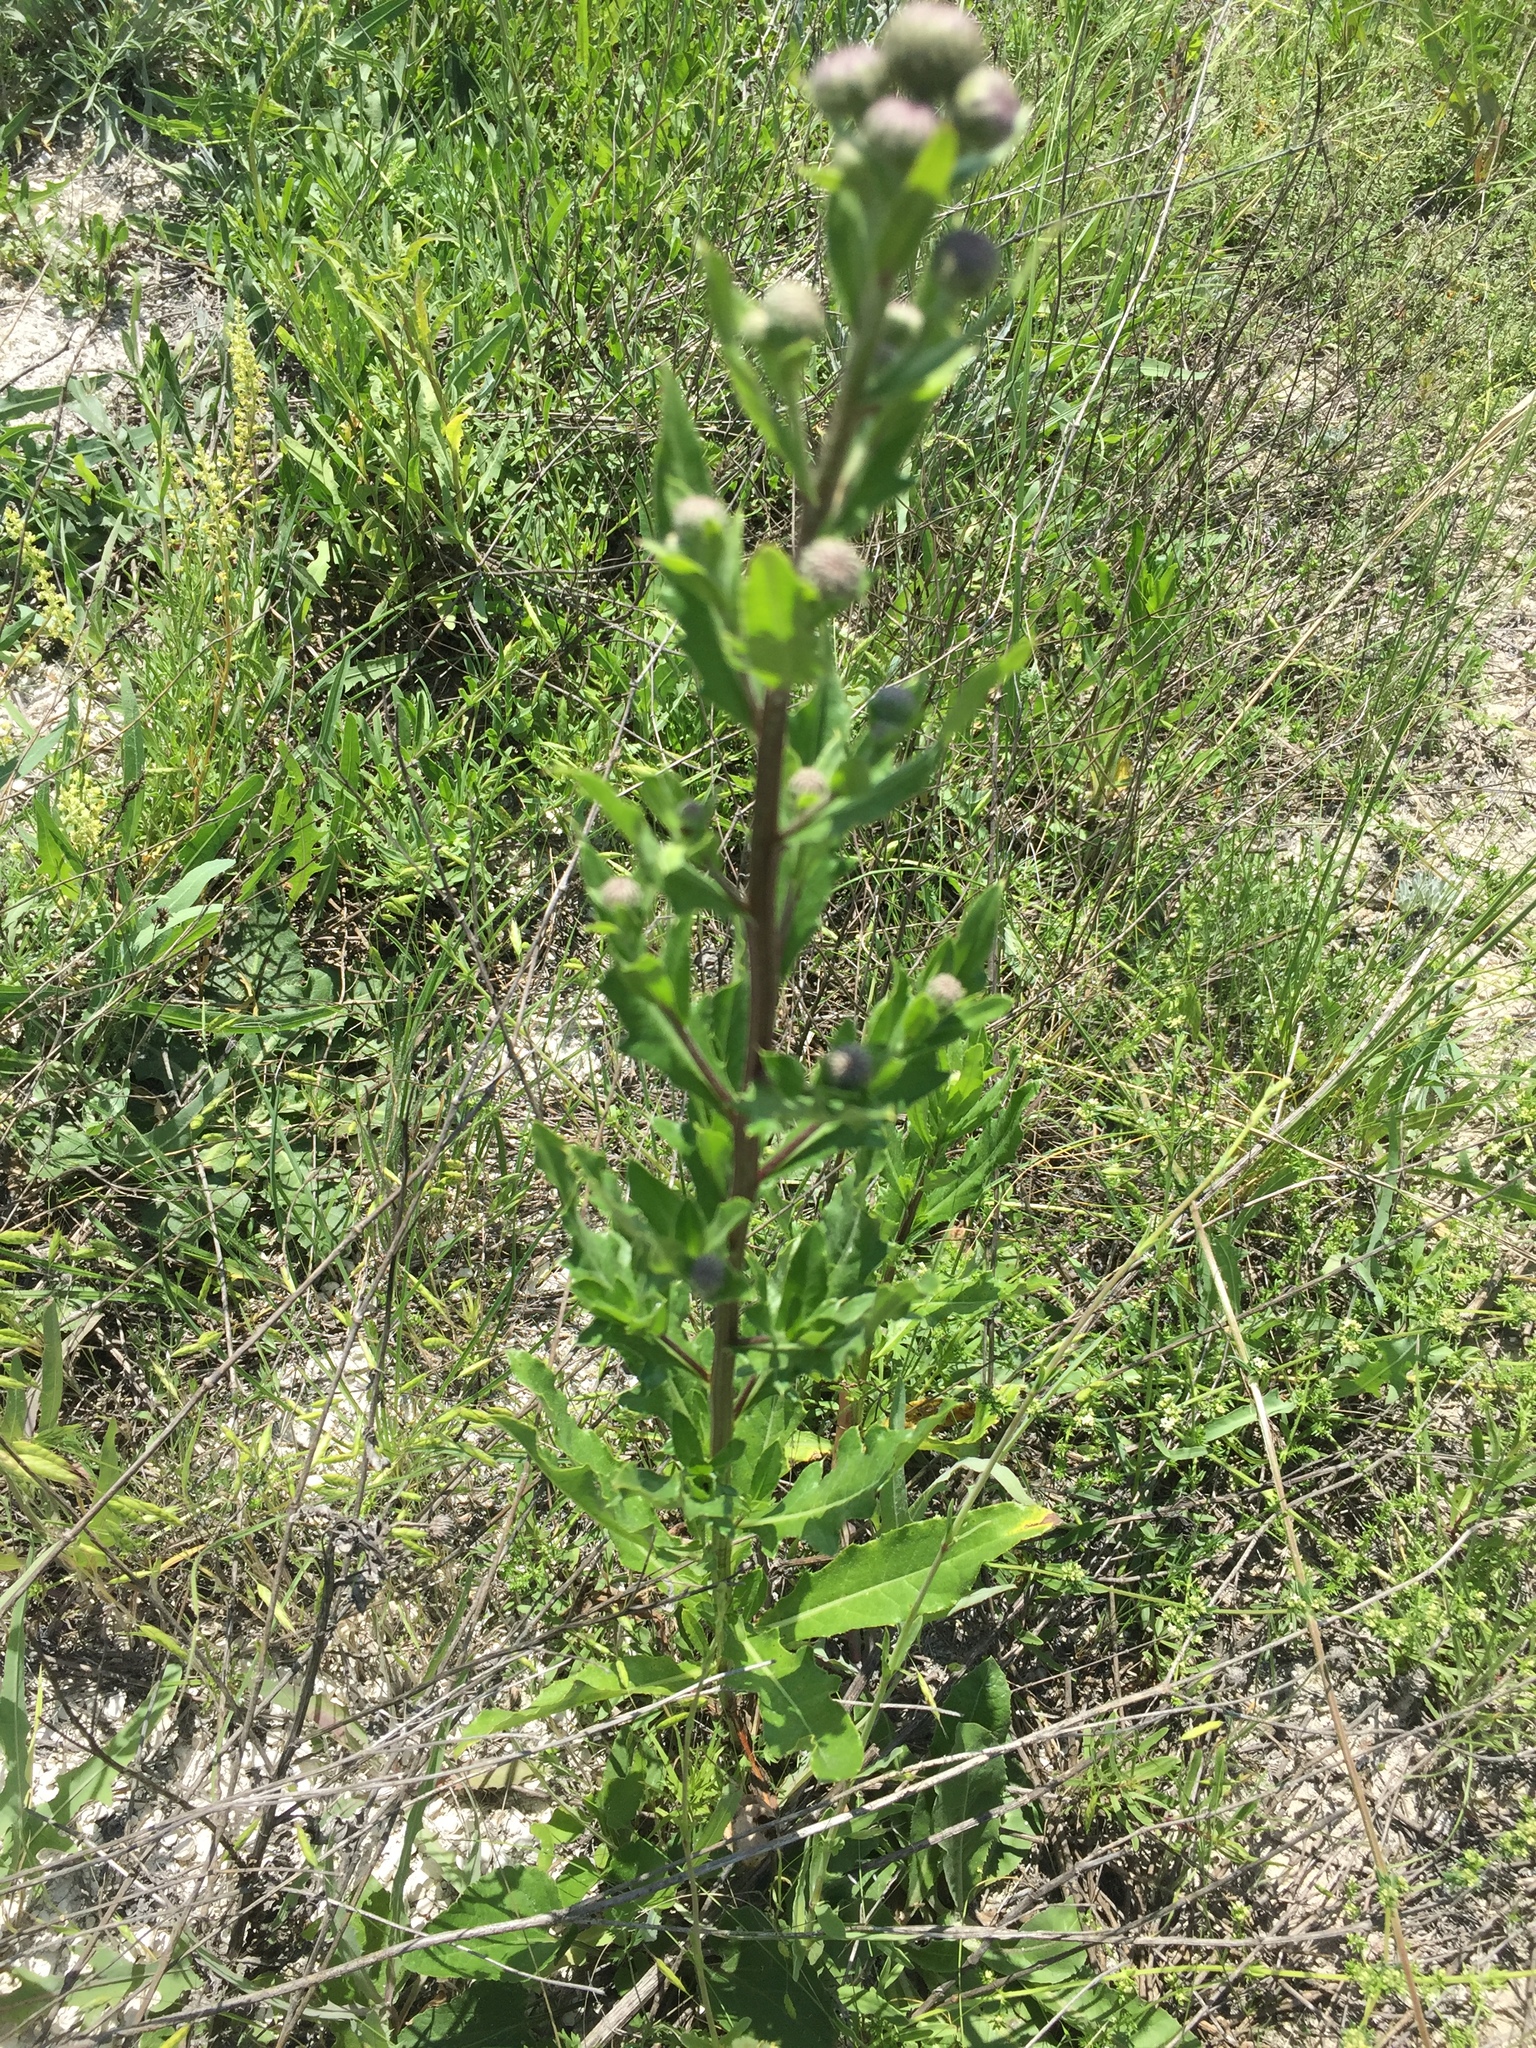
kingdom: Plantae
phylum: Tracheophyta
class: Magnoliopsida
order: Asterales
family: Asteraceae
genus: Cirsium
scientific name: Cirsium arvense
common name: Creeping thistle
